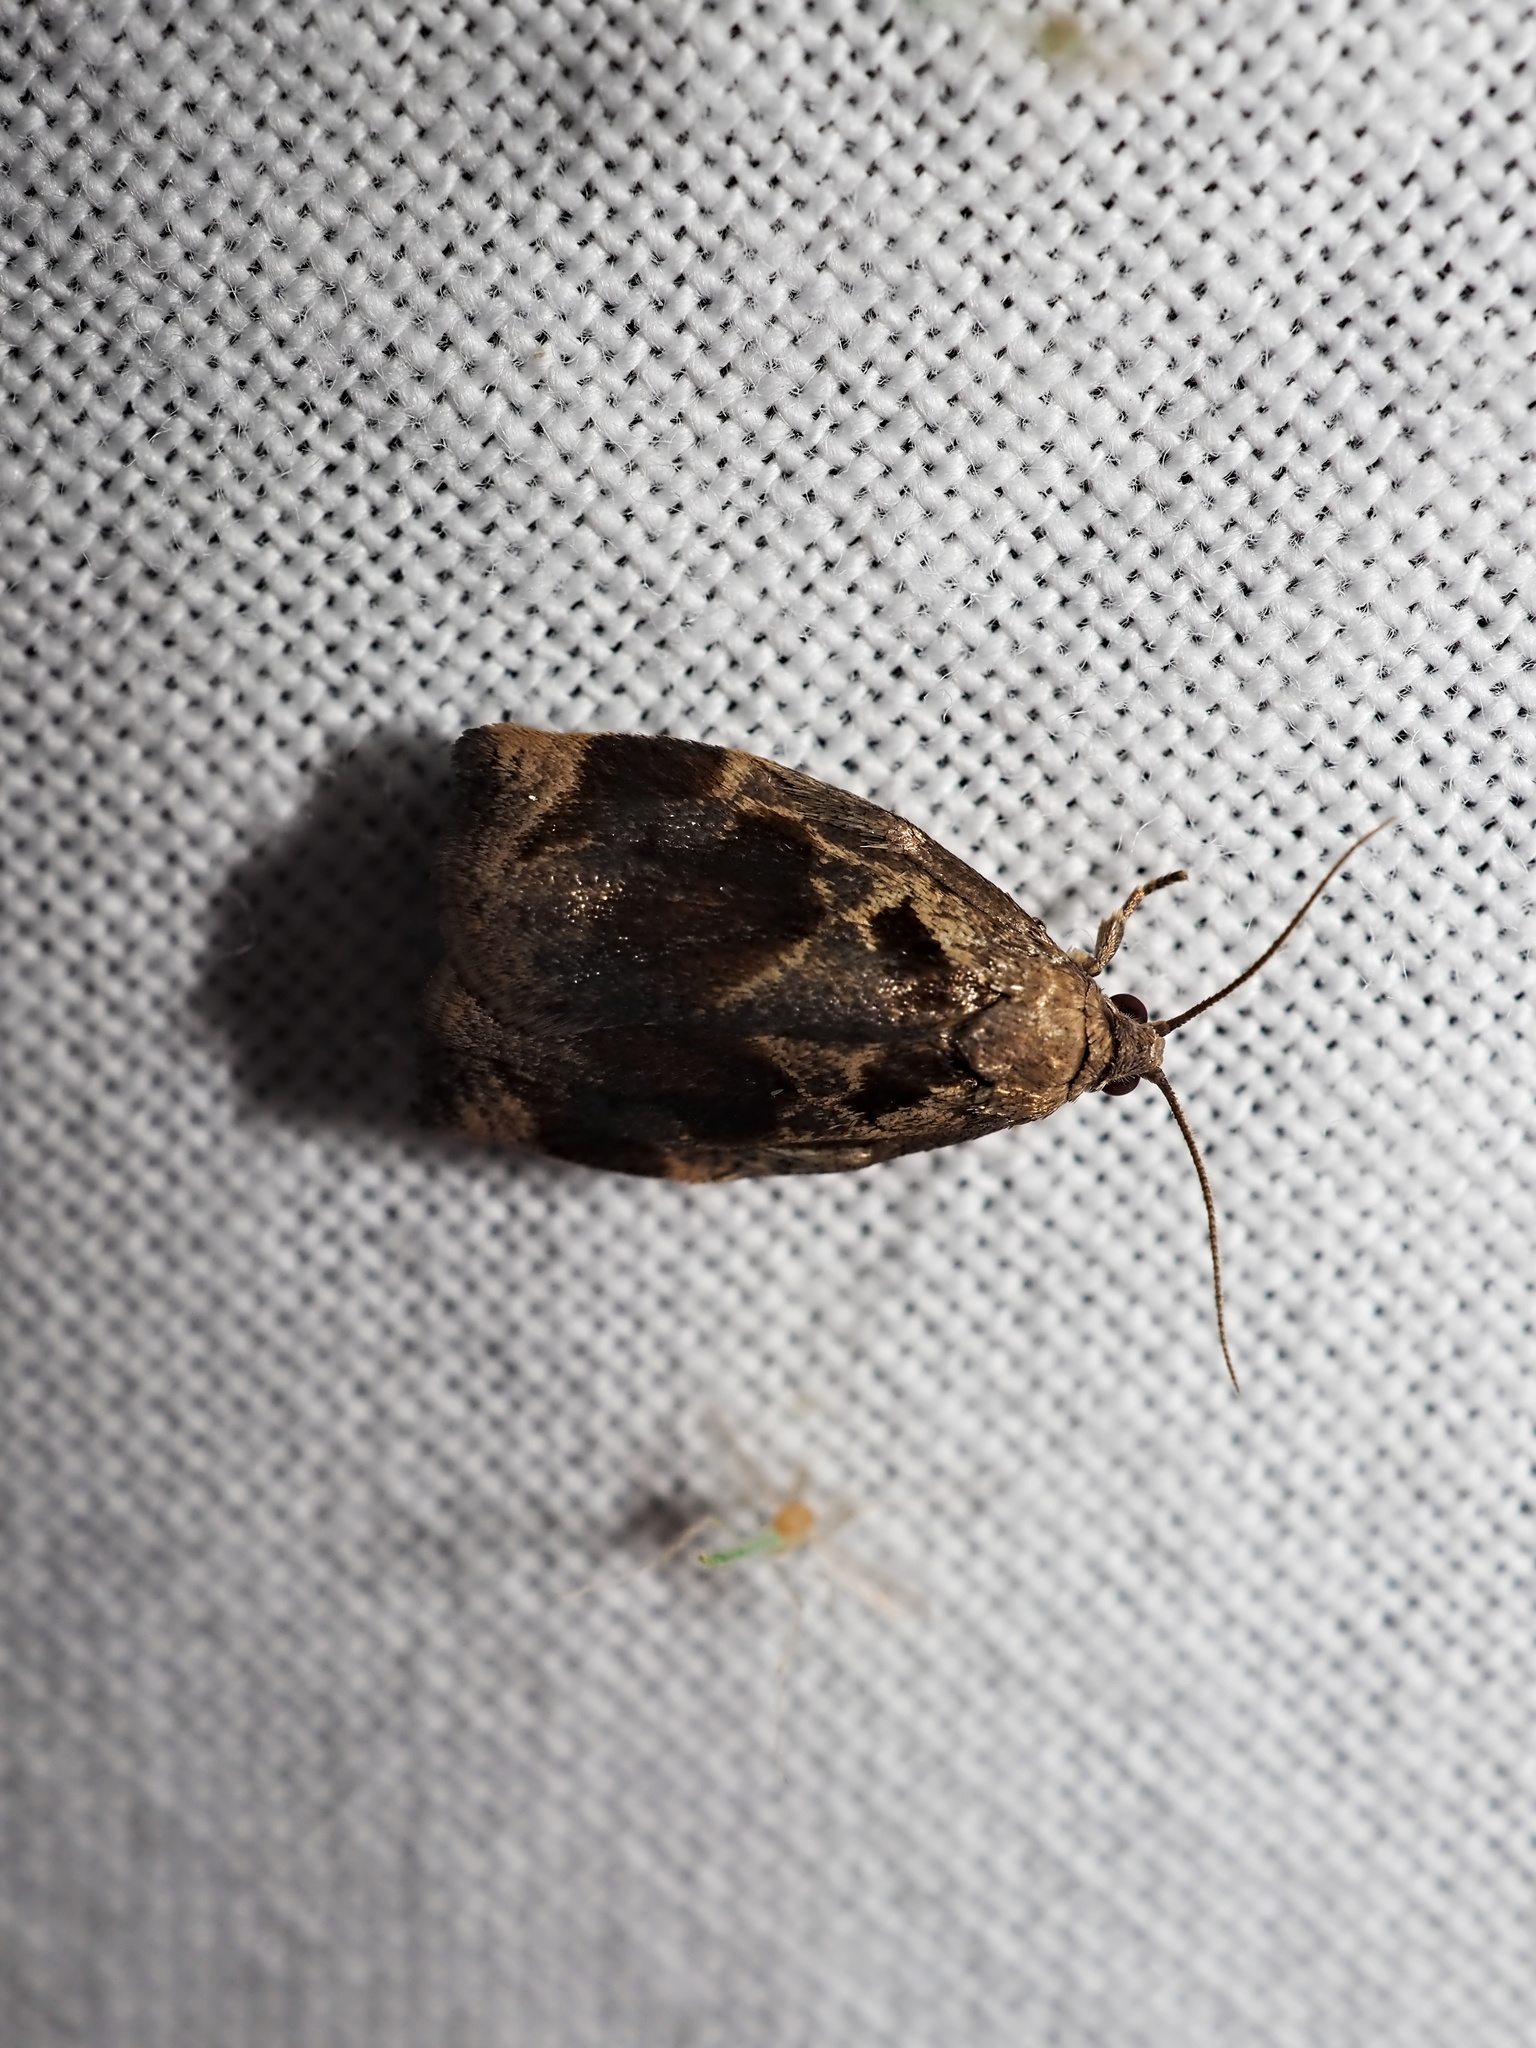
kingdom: Animalia
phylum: Arthropoda
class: Insecta
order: Lepidoptera
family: Tortricidae
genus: Archips
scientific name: Archips crataegana
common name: Brown oak tortrix
